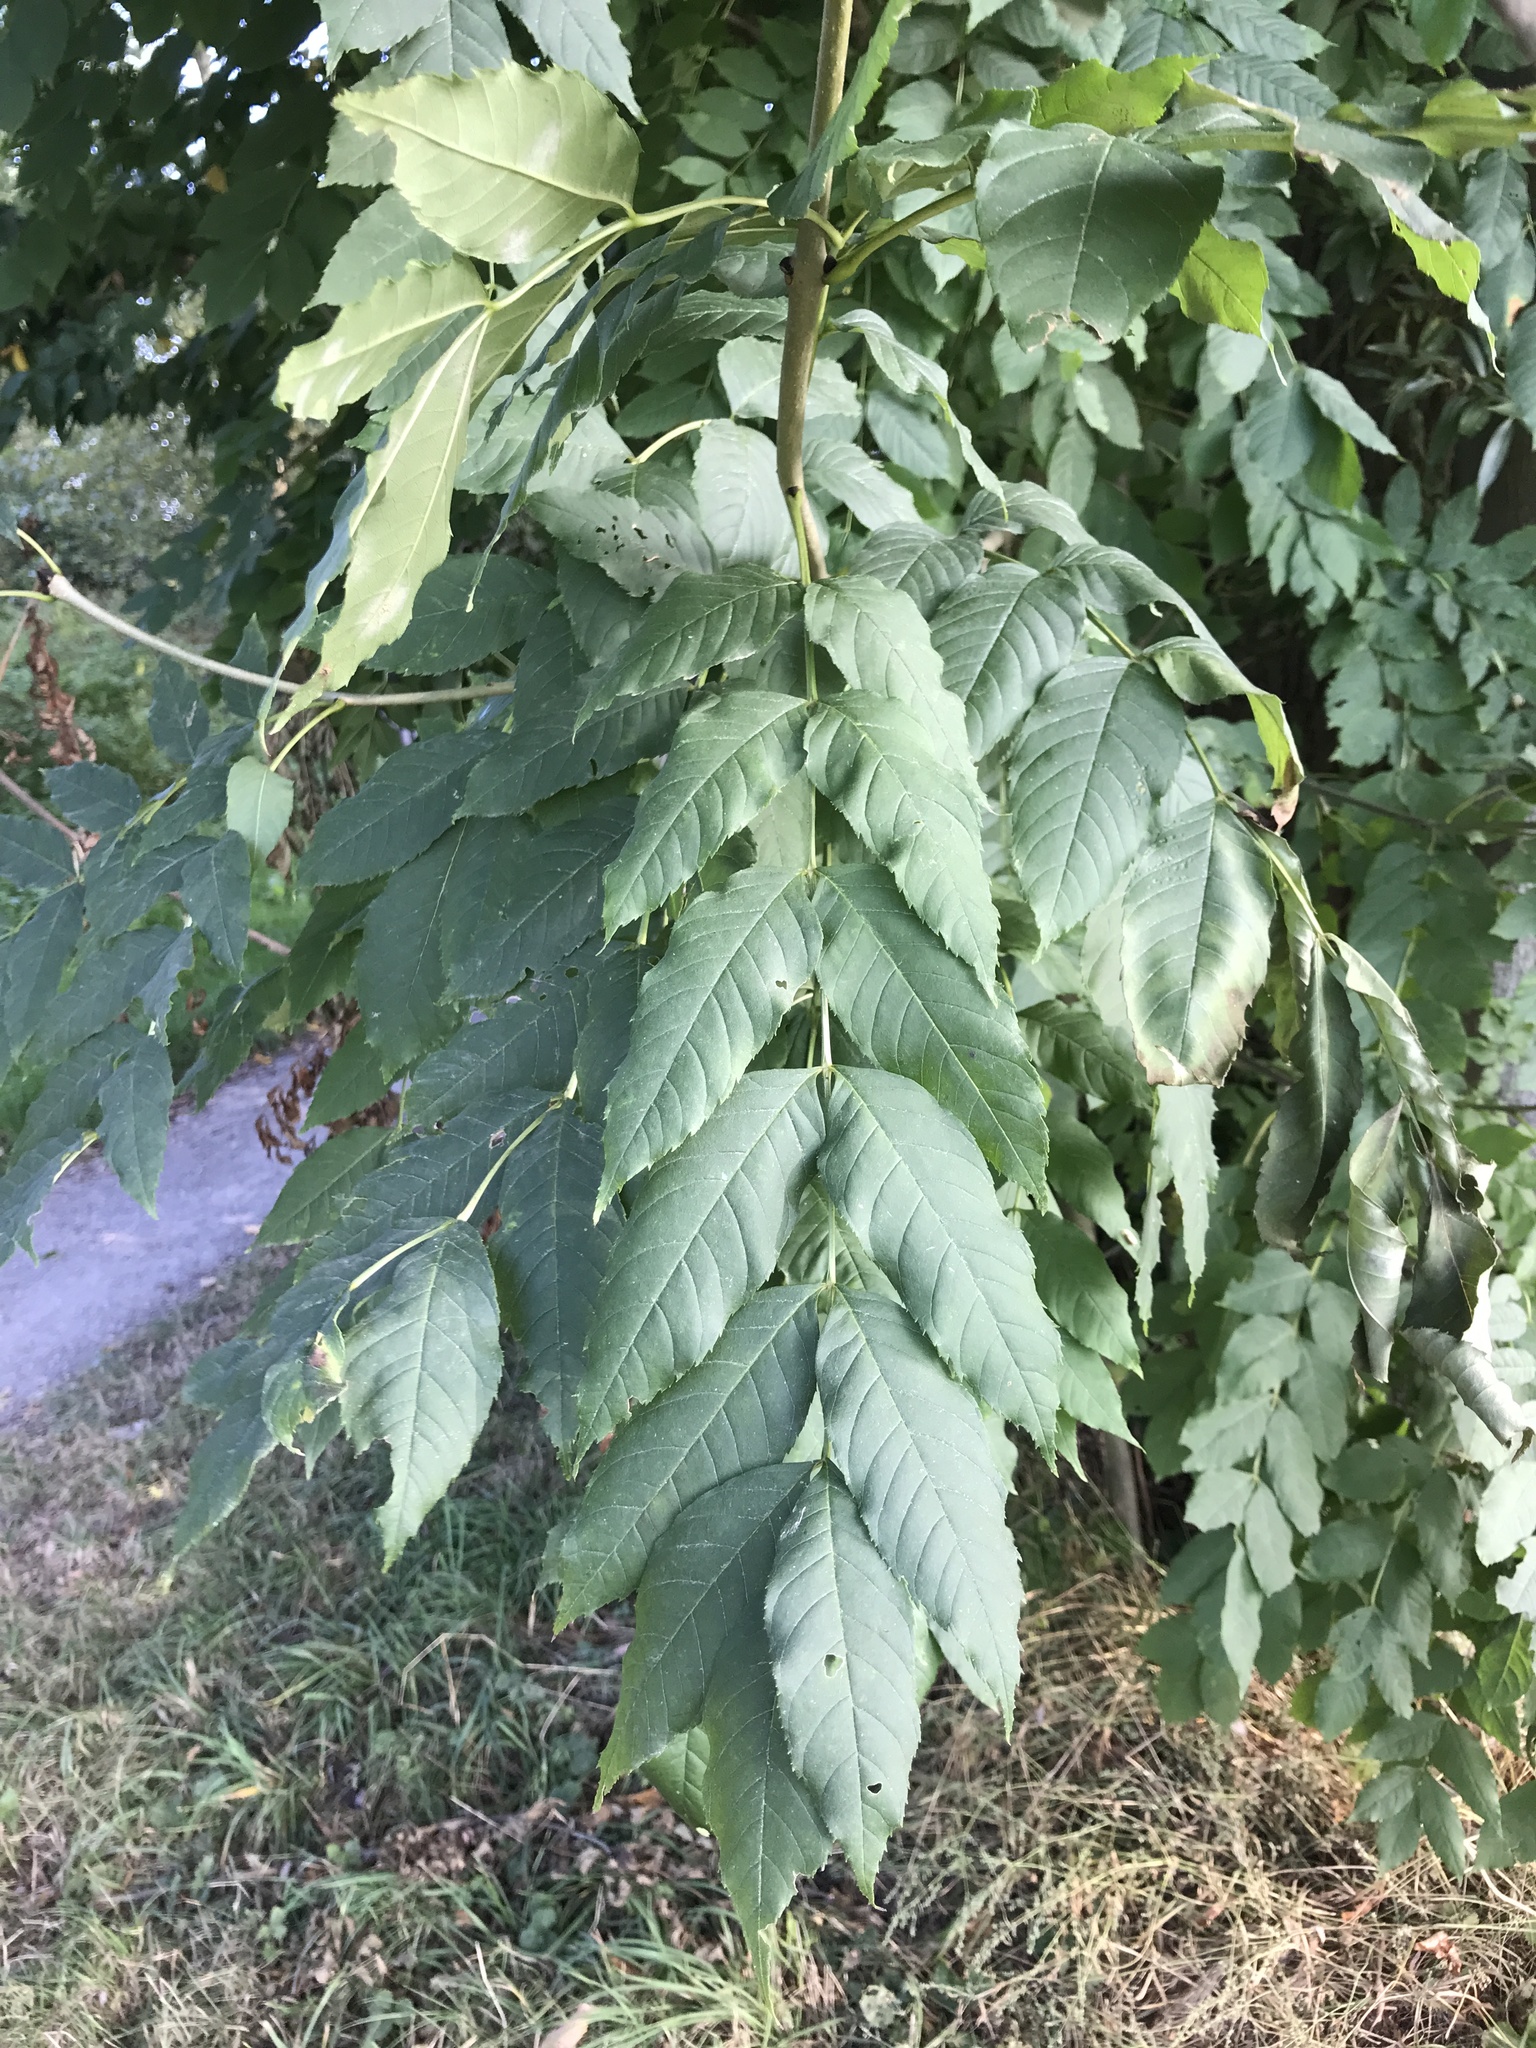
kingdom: Plantae
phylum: Tracheophyta
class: Magnoliopsida
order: Lamiales
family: Oleaceae
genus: Fraxinus
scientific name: Fraxinus excelsior
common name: European ash
